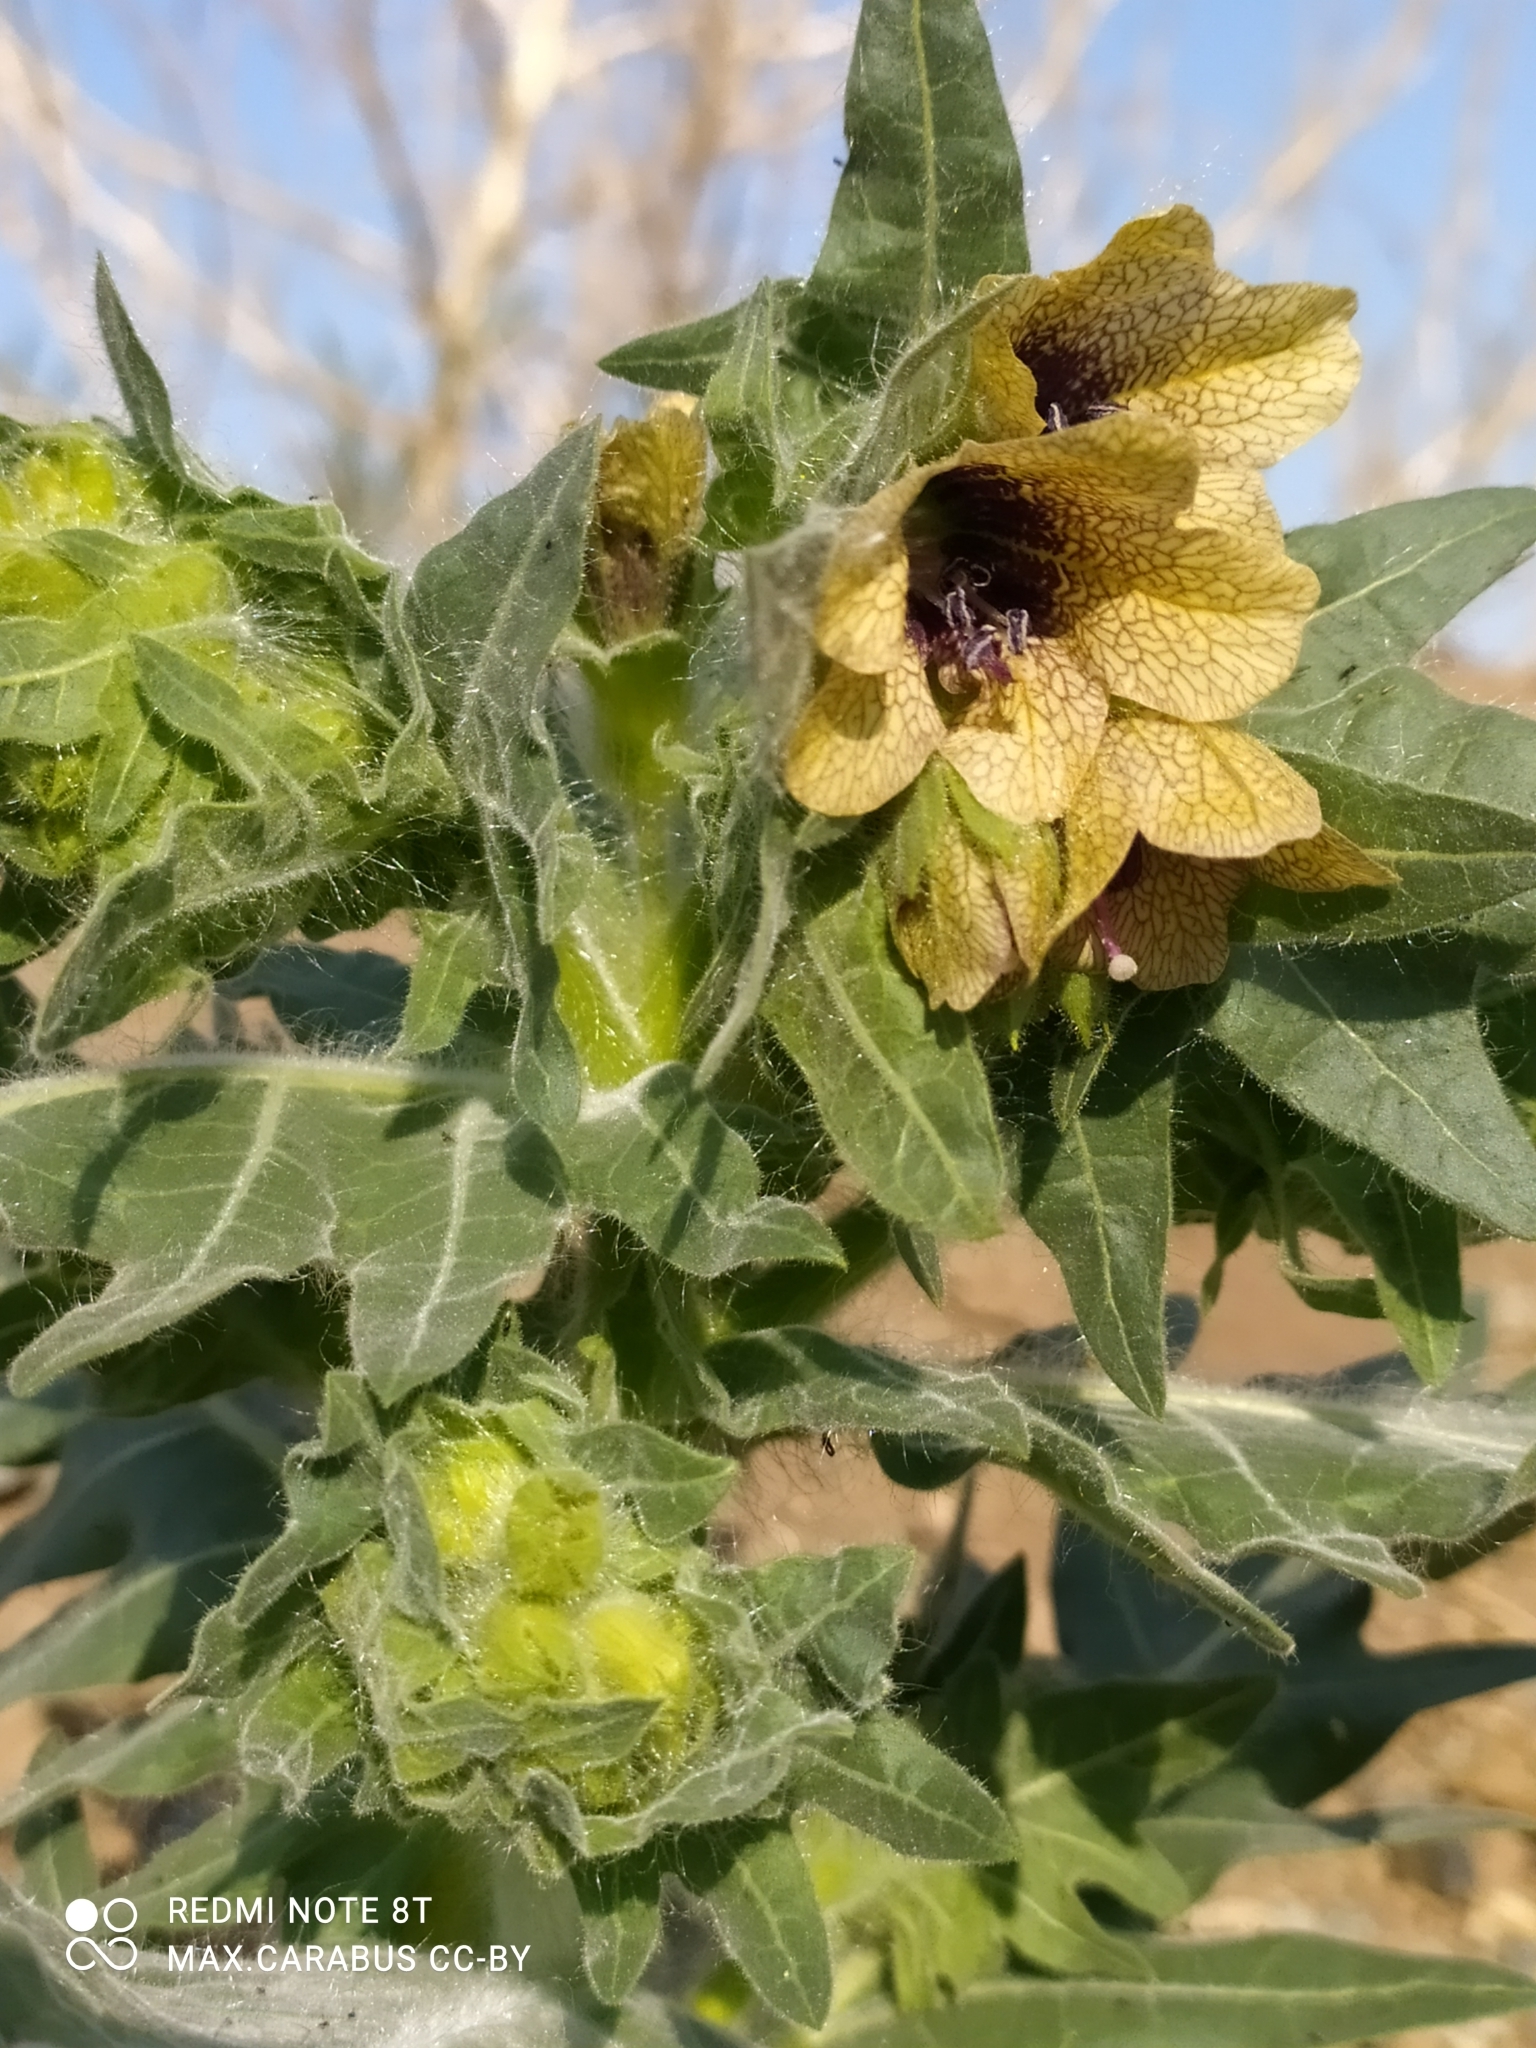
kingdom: Plantae
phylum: Tracheophyta
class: Magnoliopsida
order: Solanales
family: Solanaceae
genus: Hyoscyamus
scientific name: Hyoscyamus niger
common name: Henbane
